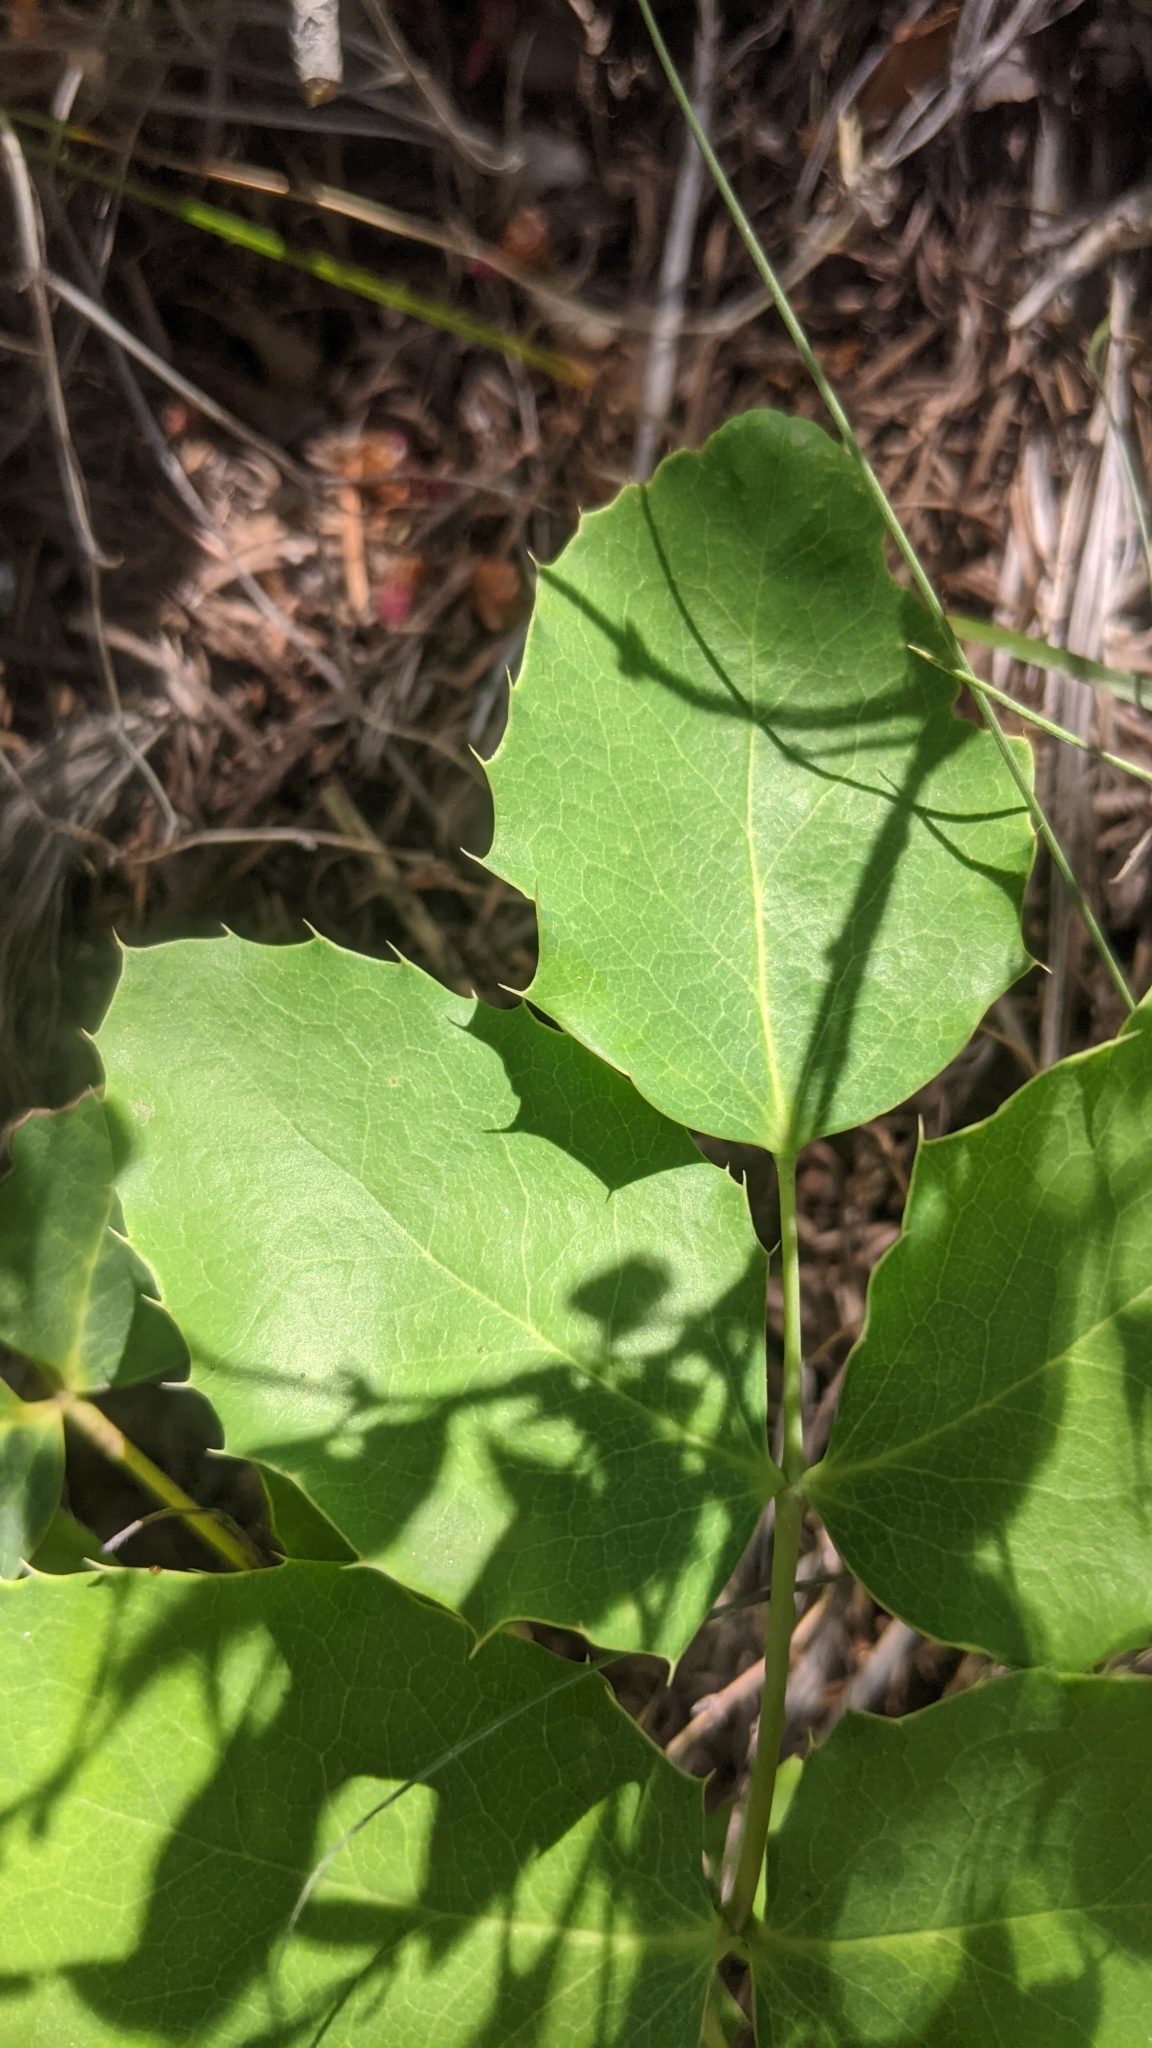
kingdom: Plantae
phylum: Tracheophyta
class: Magnoliopsida
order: Ranunculales
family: Berberidaceae
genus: Mahonia
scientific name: Mahonia repens
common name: Creeping oregon-grape
